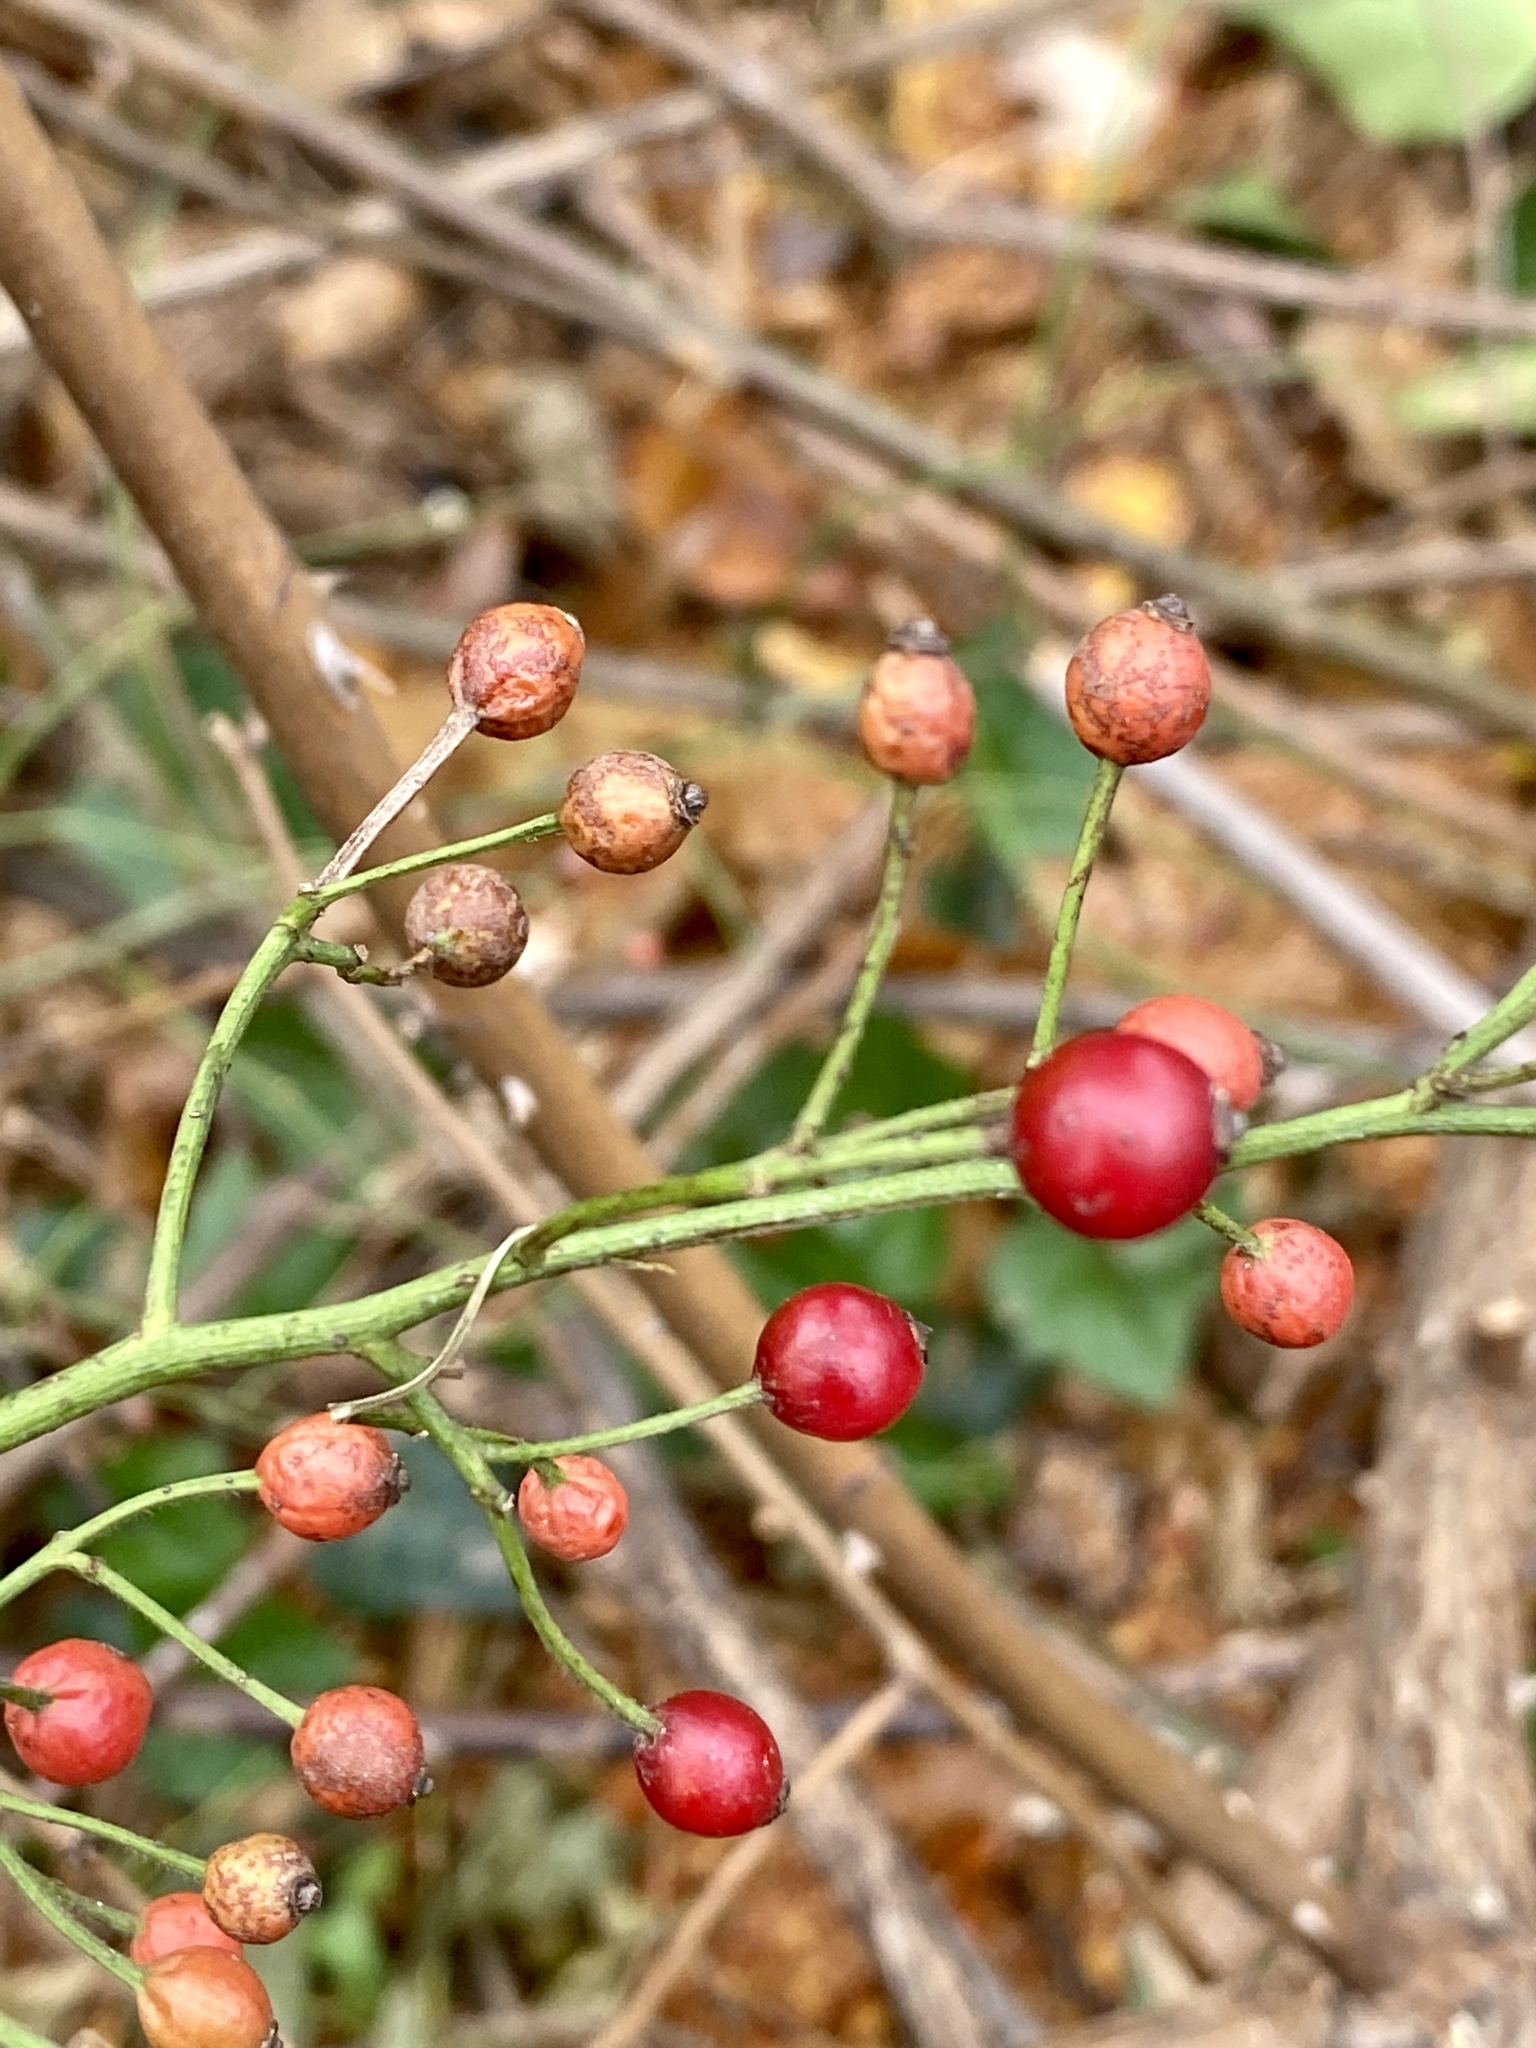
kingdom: Plantae
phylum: Tracheophyta
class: Magnoliopsida
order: Rosales
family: Rosaceae
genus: Rosa
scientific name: Rosa multiflora
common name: Multiflora rose
